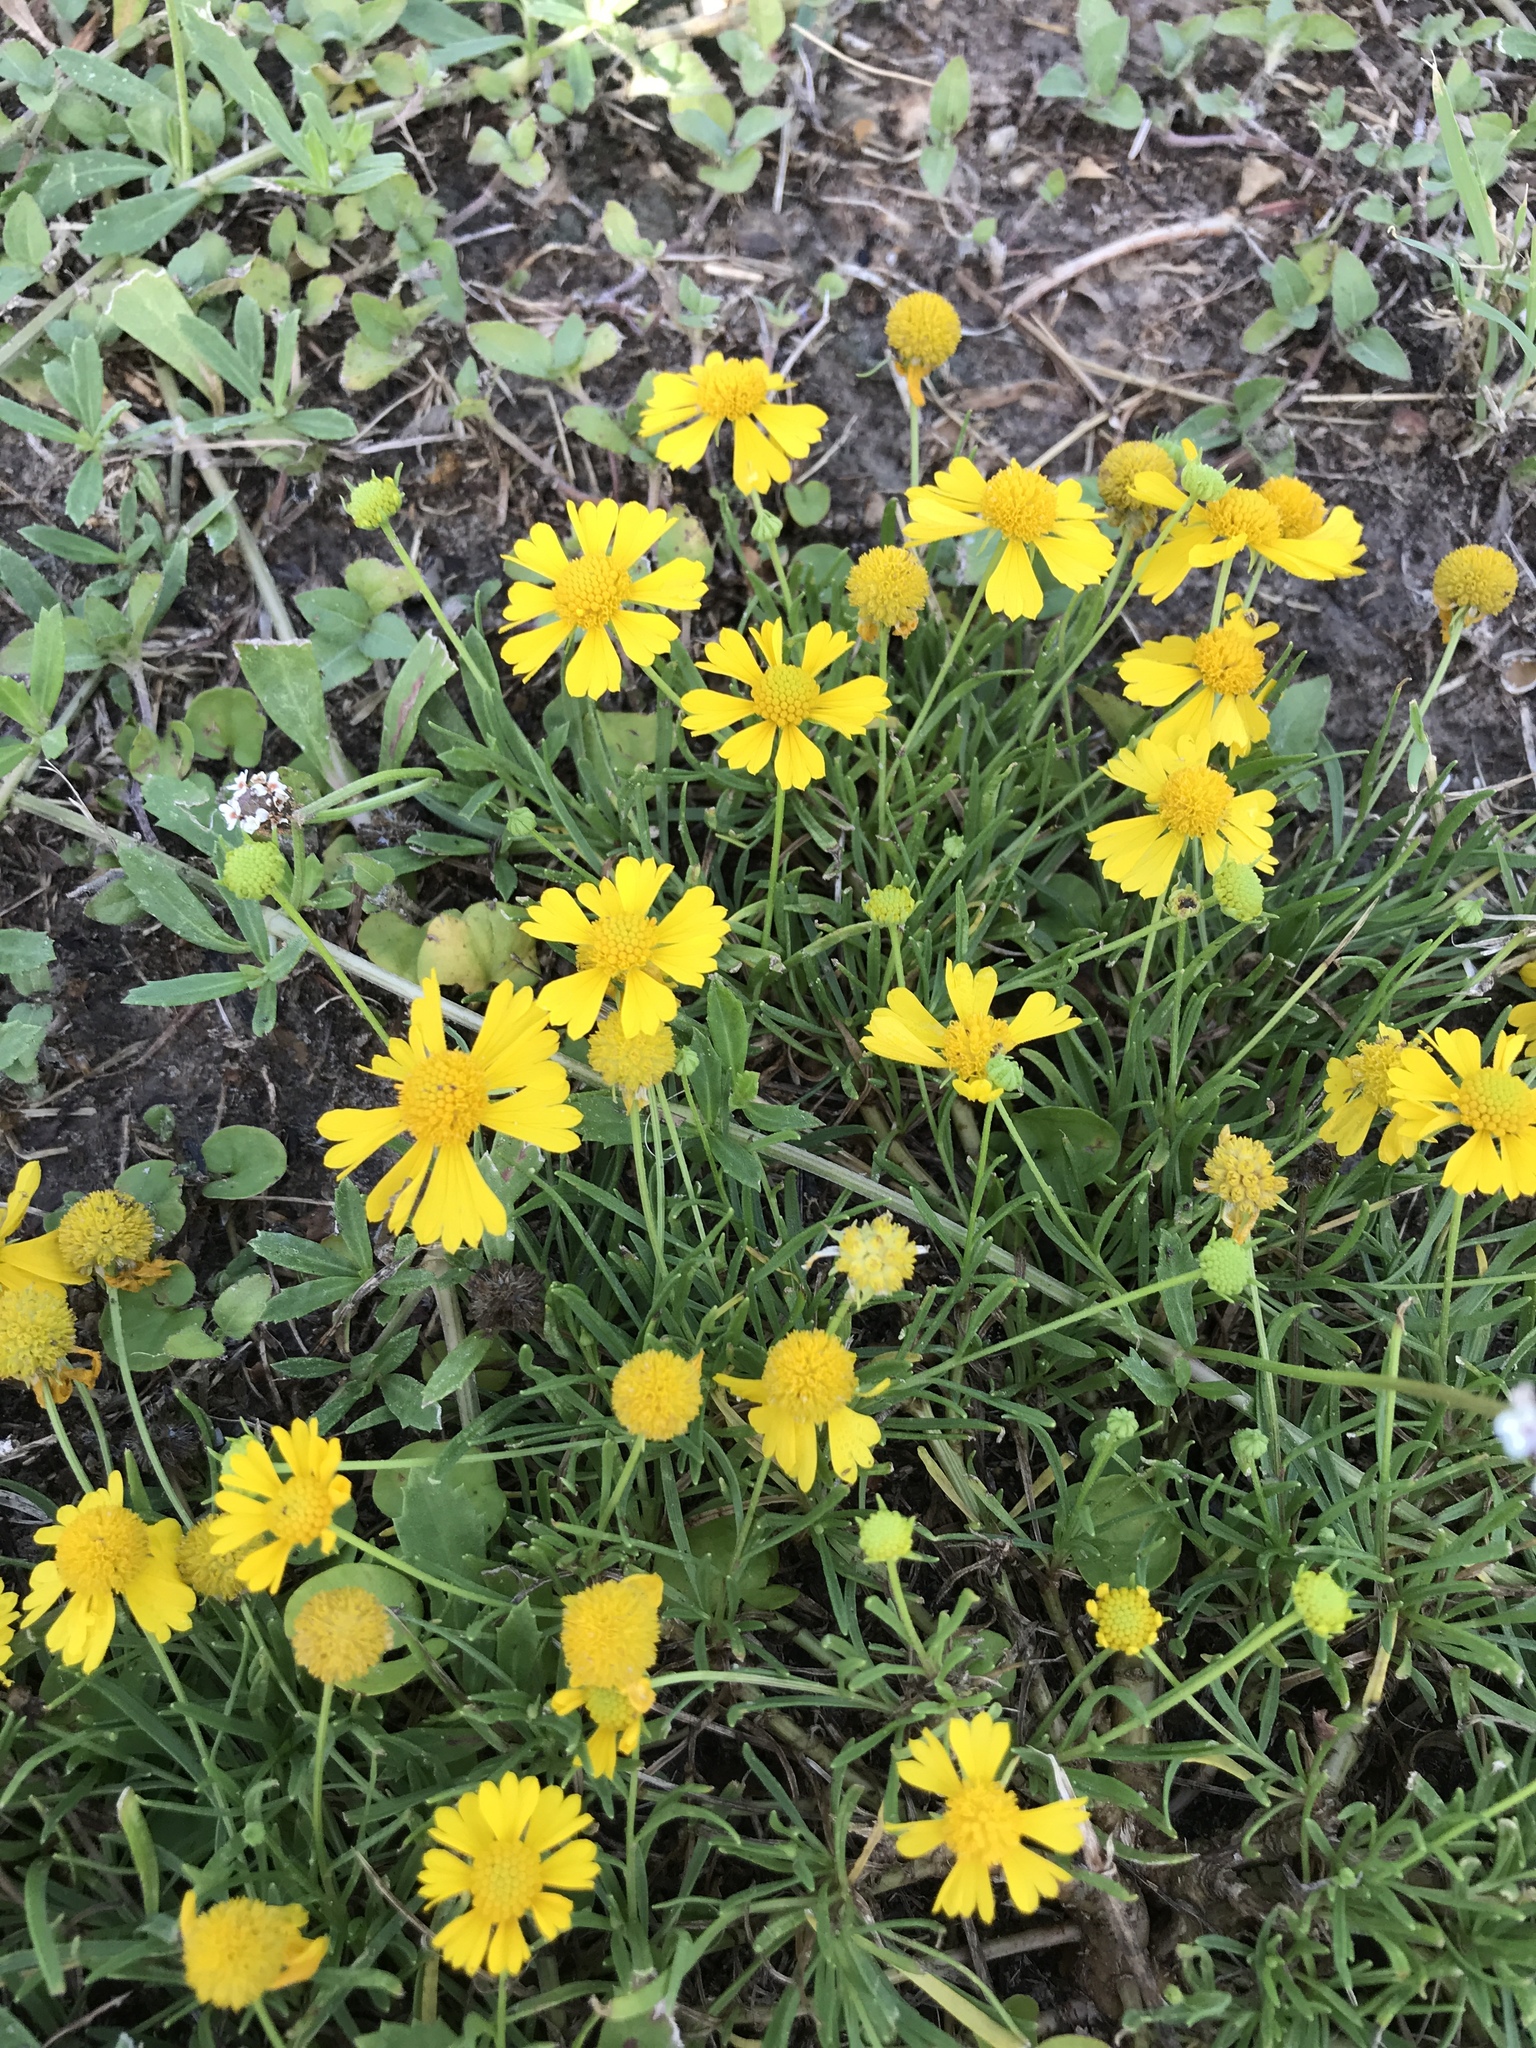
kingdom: Plantae
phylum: Tracheophyta
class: Magnoliopsida
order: Asterales
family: Asteraceae
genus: Helenium
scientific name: Helenium amarum
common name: Bitter sneezeweed
